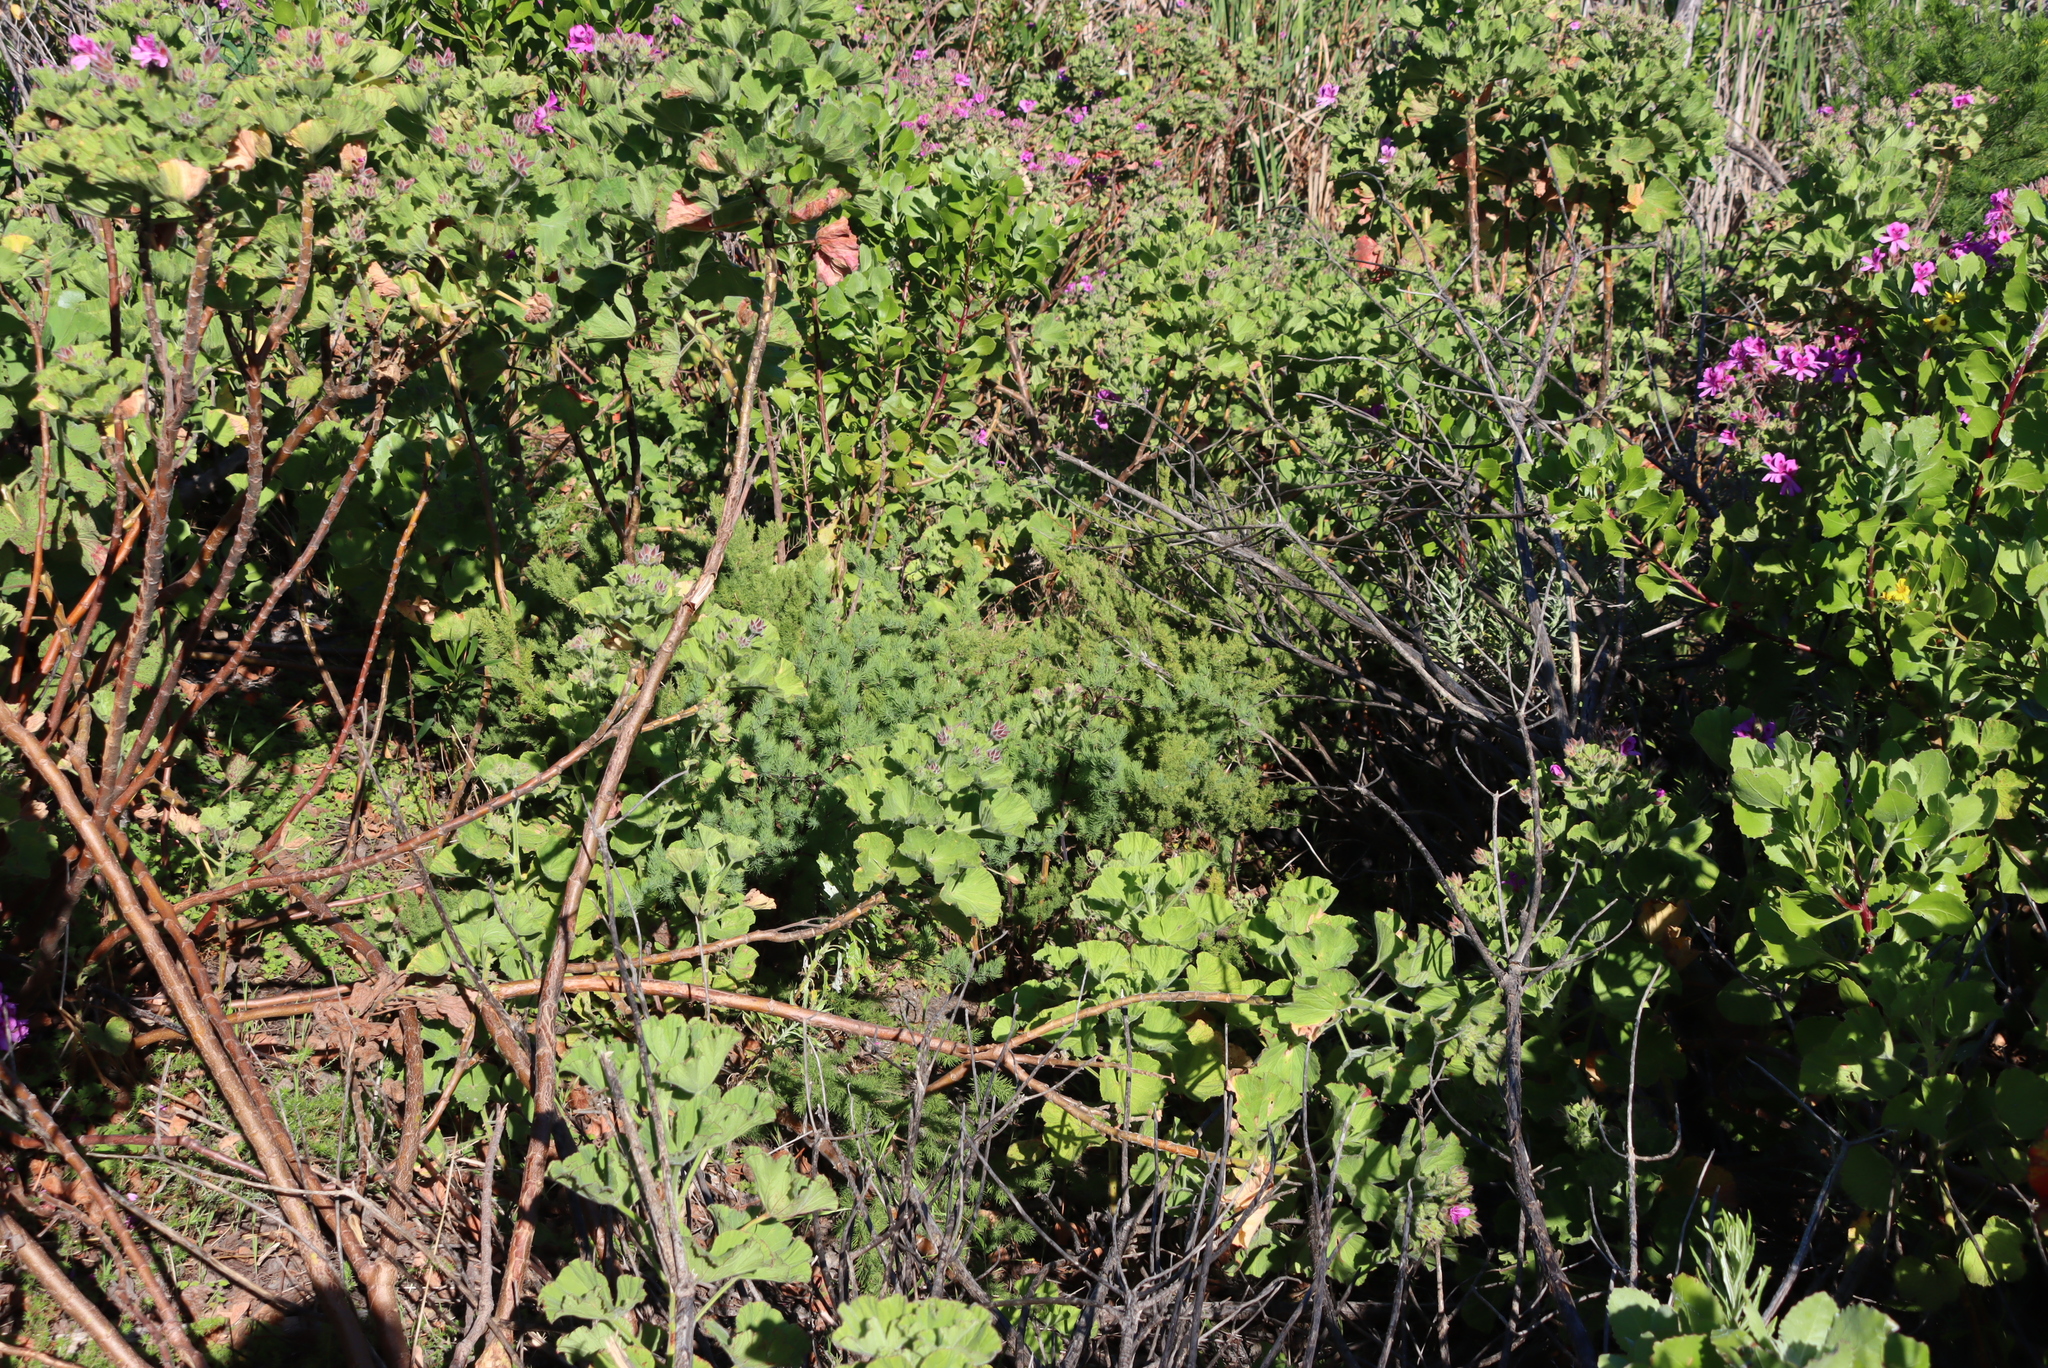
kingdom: Plantae
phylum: Tracheophyta
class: Liliopsida
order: Asparagales
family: Asparagaceae
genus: Asparagus
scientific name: Asparagus rubicundus
